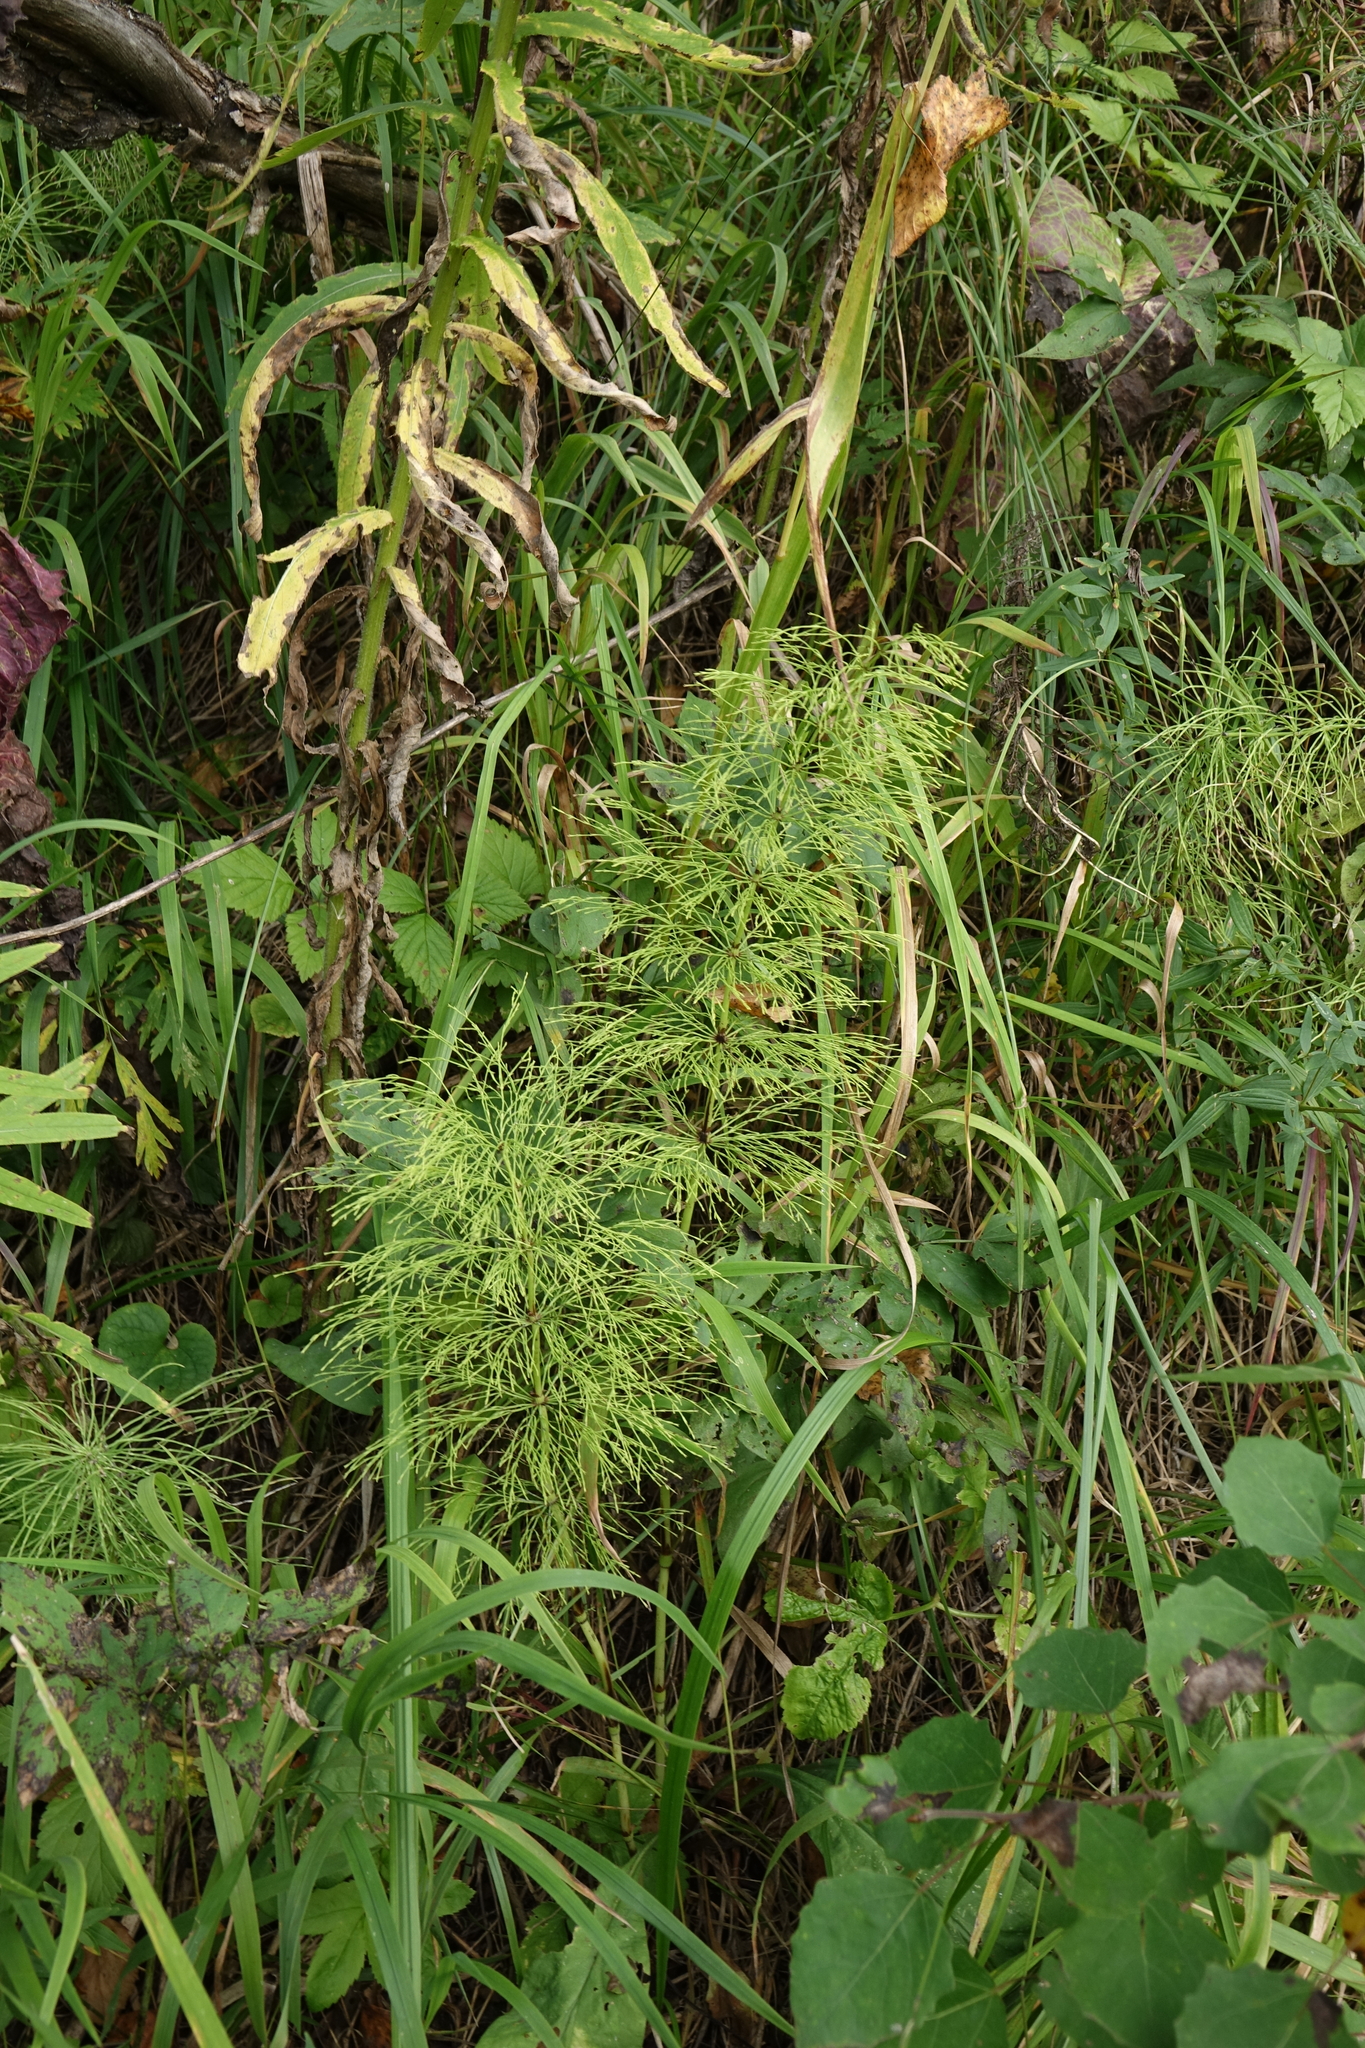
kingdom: Plantae
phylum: Tracheophyta
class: Polypodiopsida
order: Equisetales
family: Equisetaceae
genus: Equisetum
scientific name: Equisetum sylvaticum
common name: Wood horsetail
